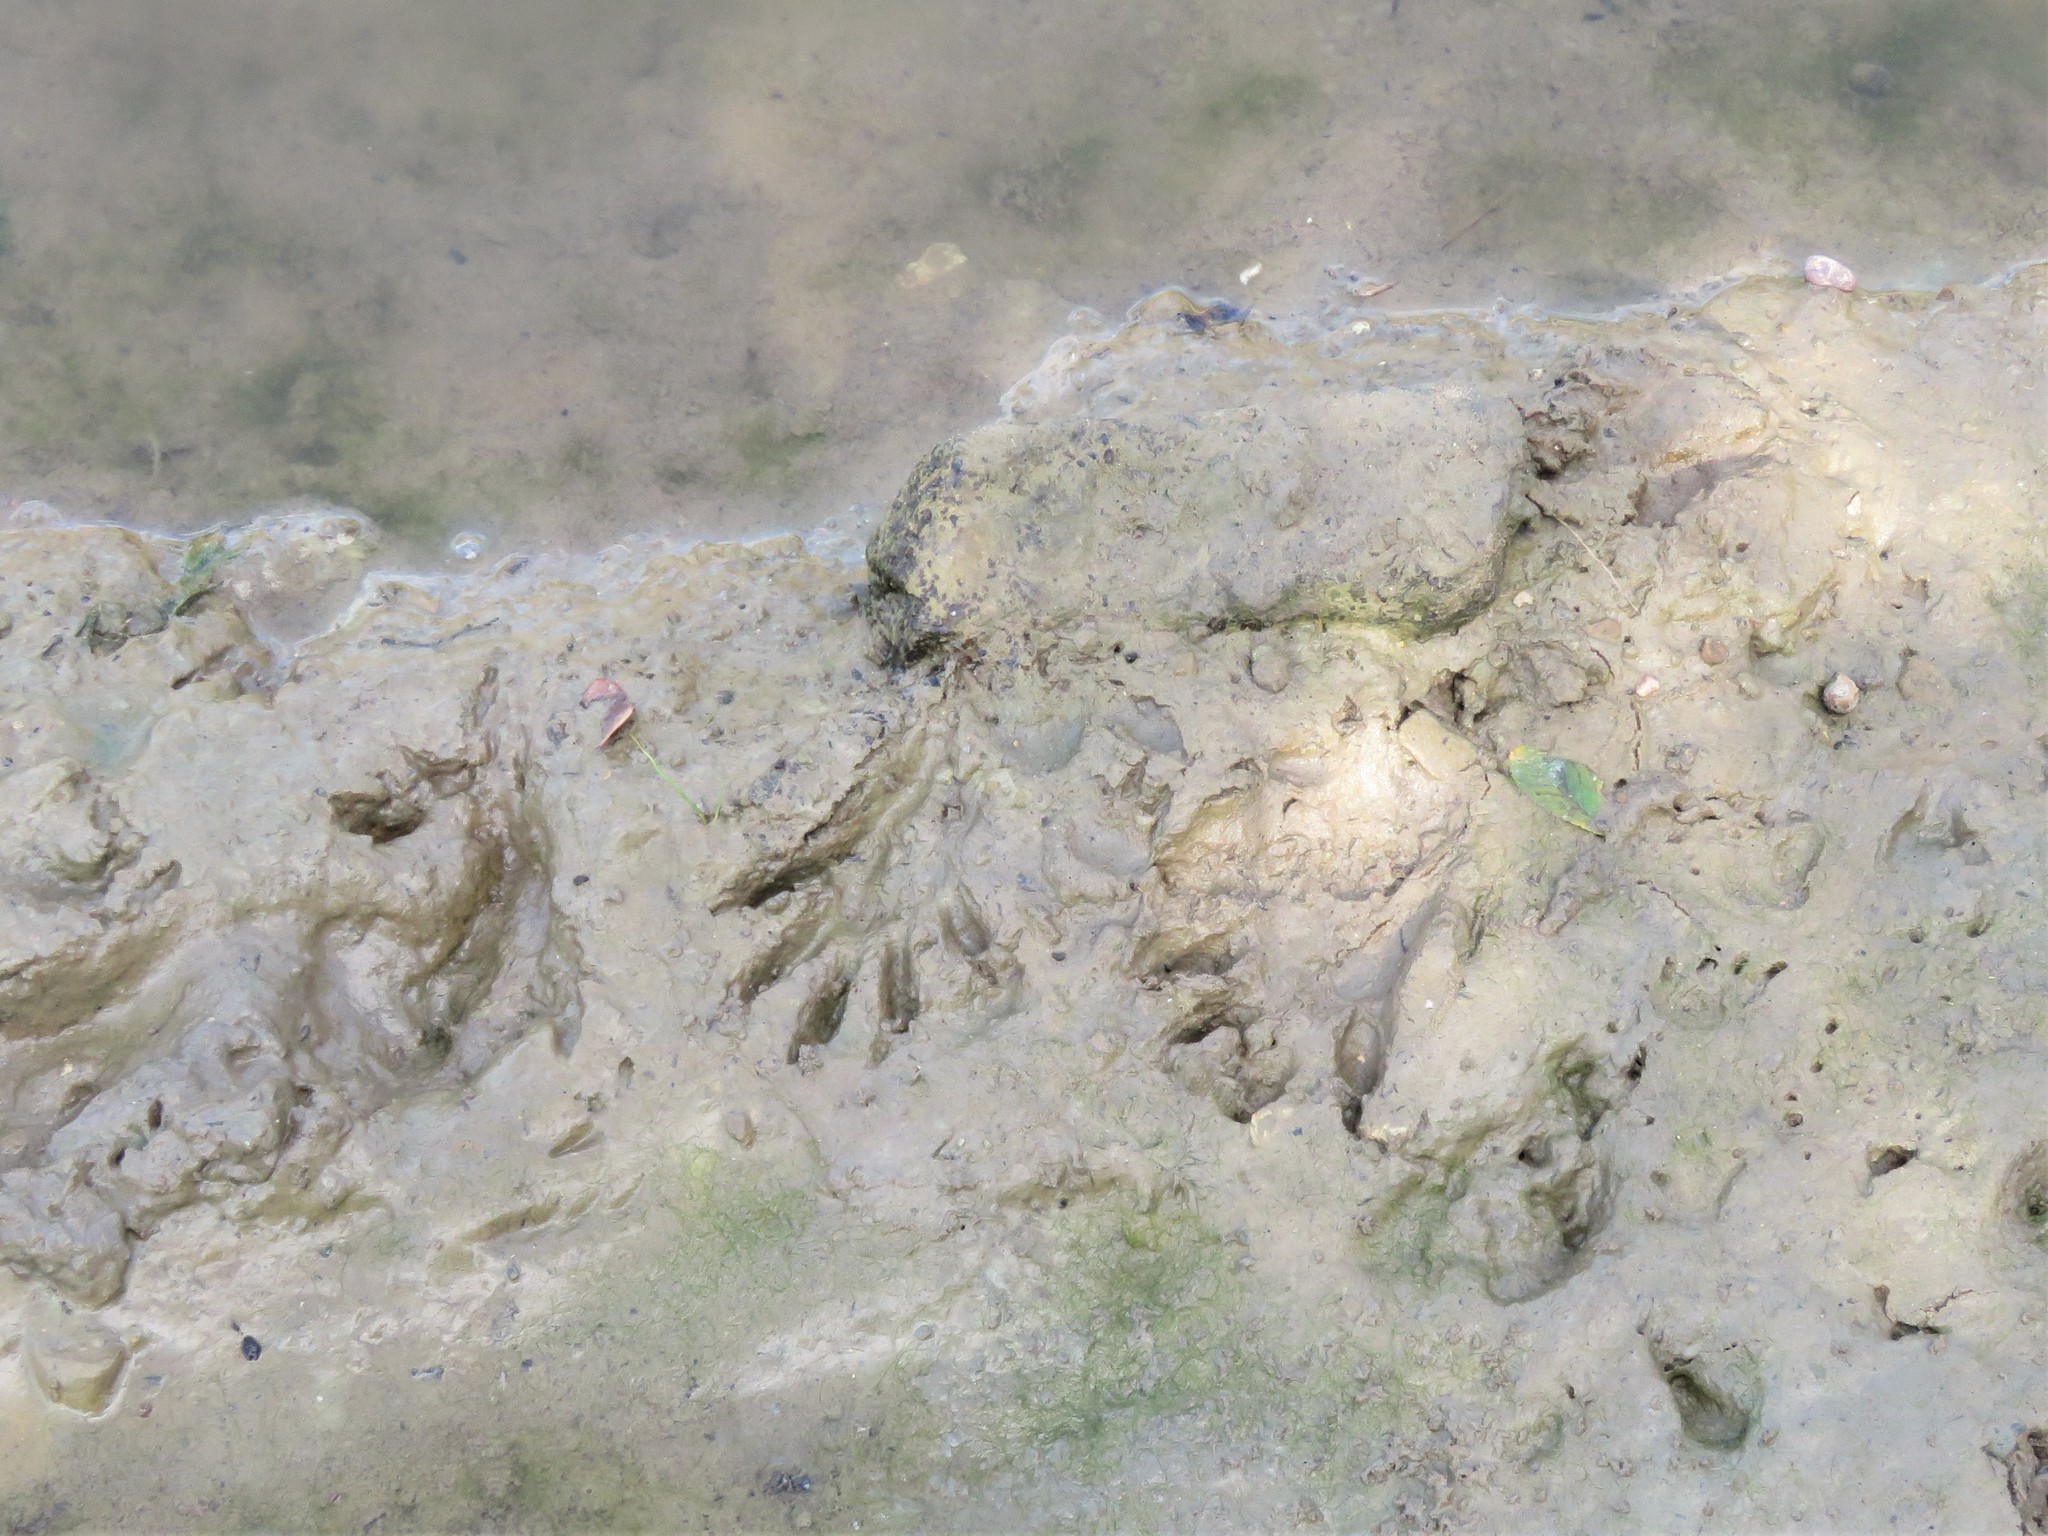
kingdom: Animalia
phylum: Chordata
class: Mammalia
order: Carnivora
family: Procyonidae
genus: Procyon
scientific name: Procyon lotor
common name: Raccoon
